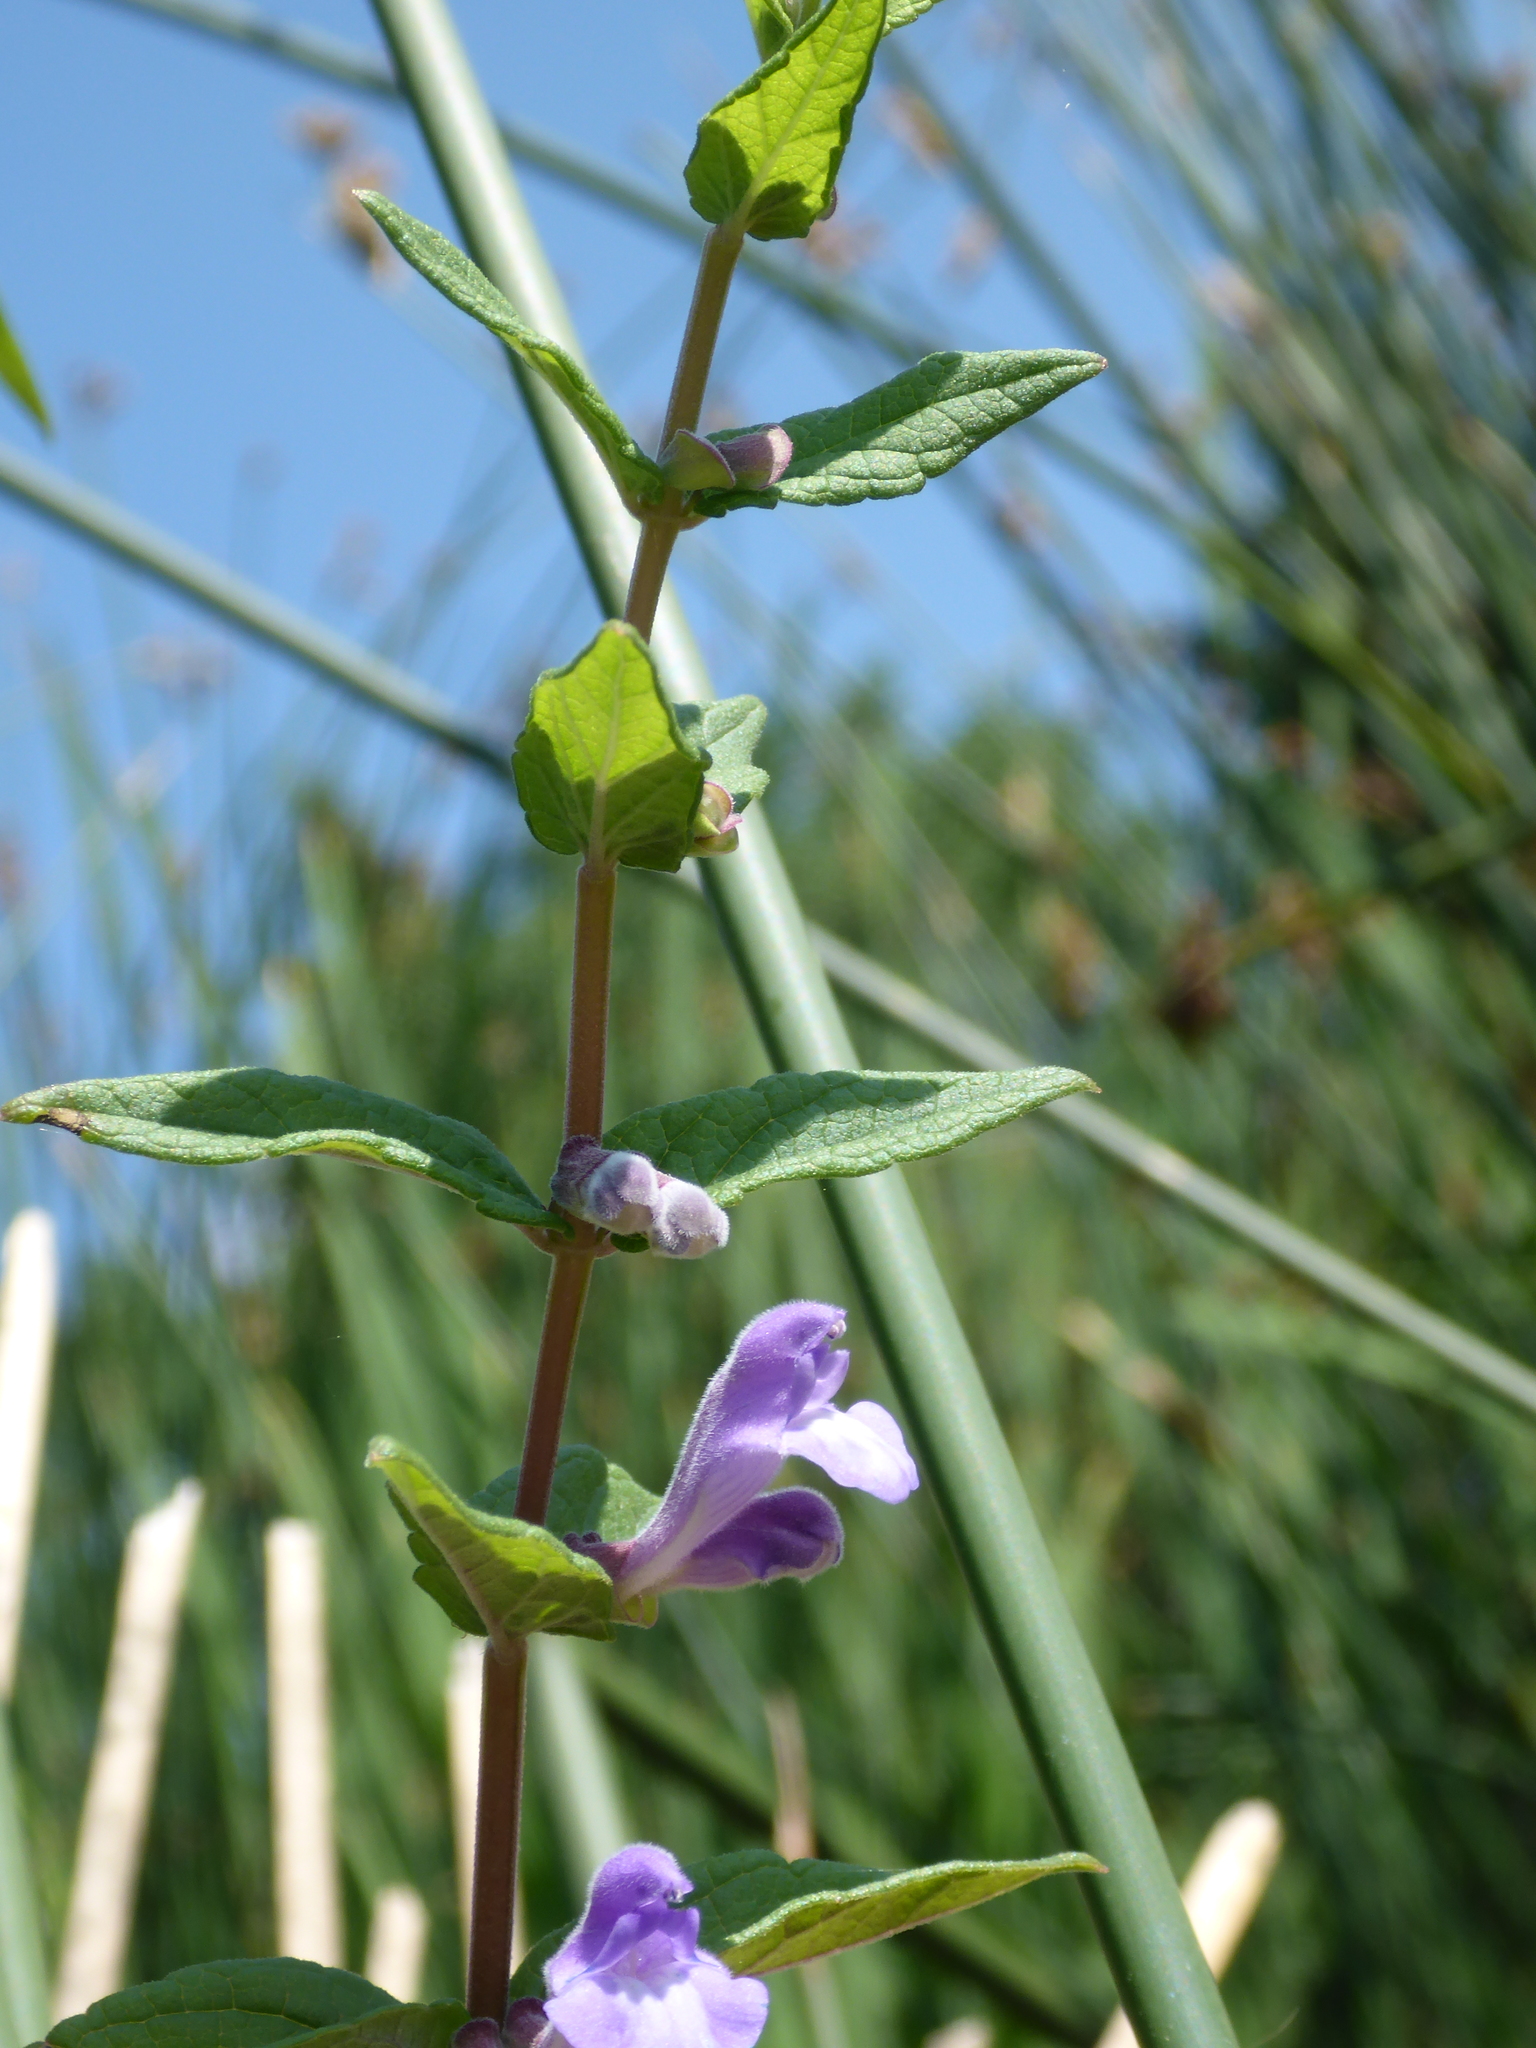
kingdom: Plantae
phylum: Tracheophyta
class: Magnoliopsida
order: Lamiales
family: Lamiaceae
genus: Scutellaria
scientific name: Scutellaria galericulata
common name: Skullcap
